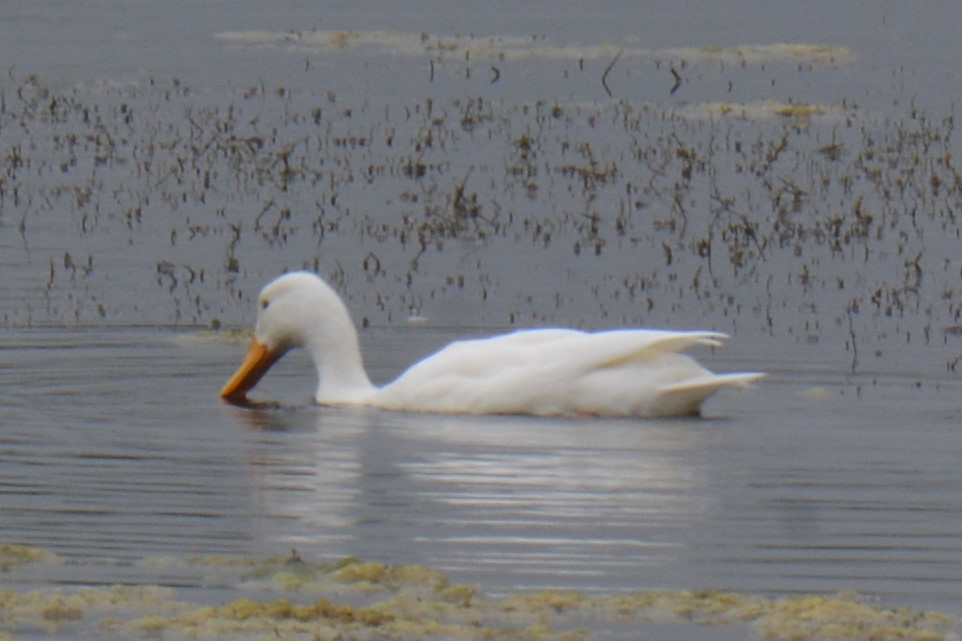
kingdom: Animalia
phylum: Chordata
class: Aves
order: Anseriformes
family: Anatidae
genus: Anas
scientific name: Anas platyrhynchos
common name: Mallard
